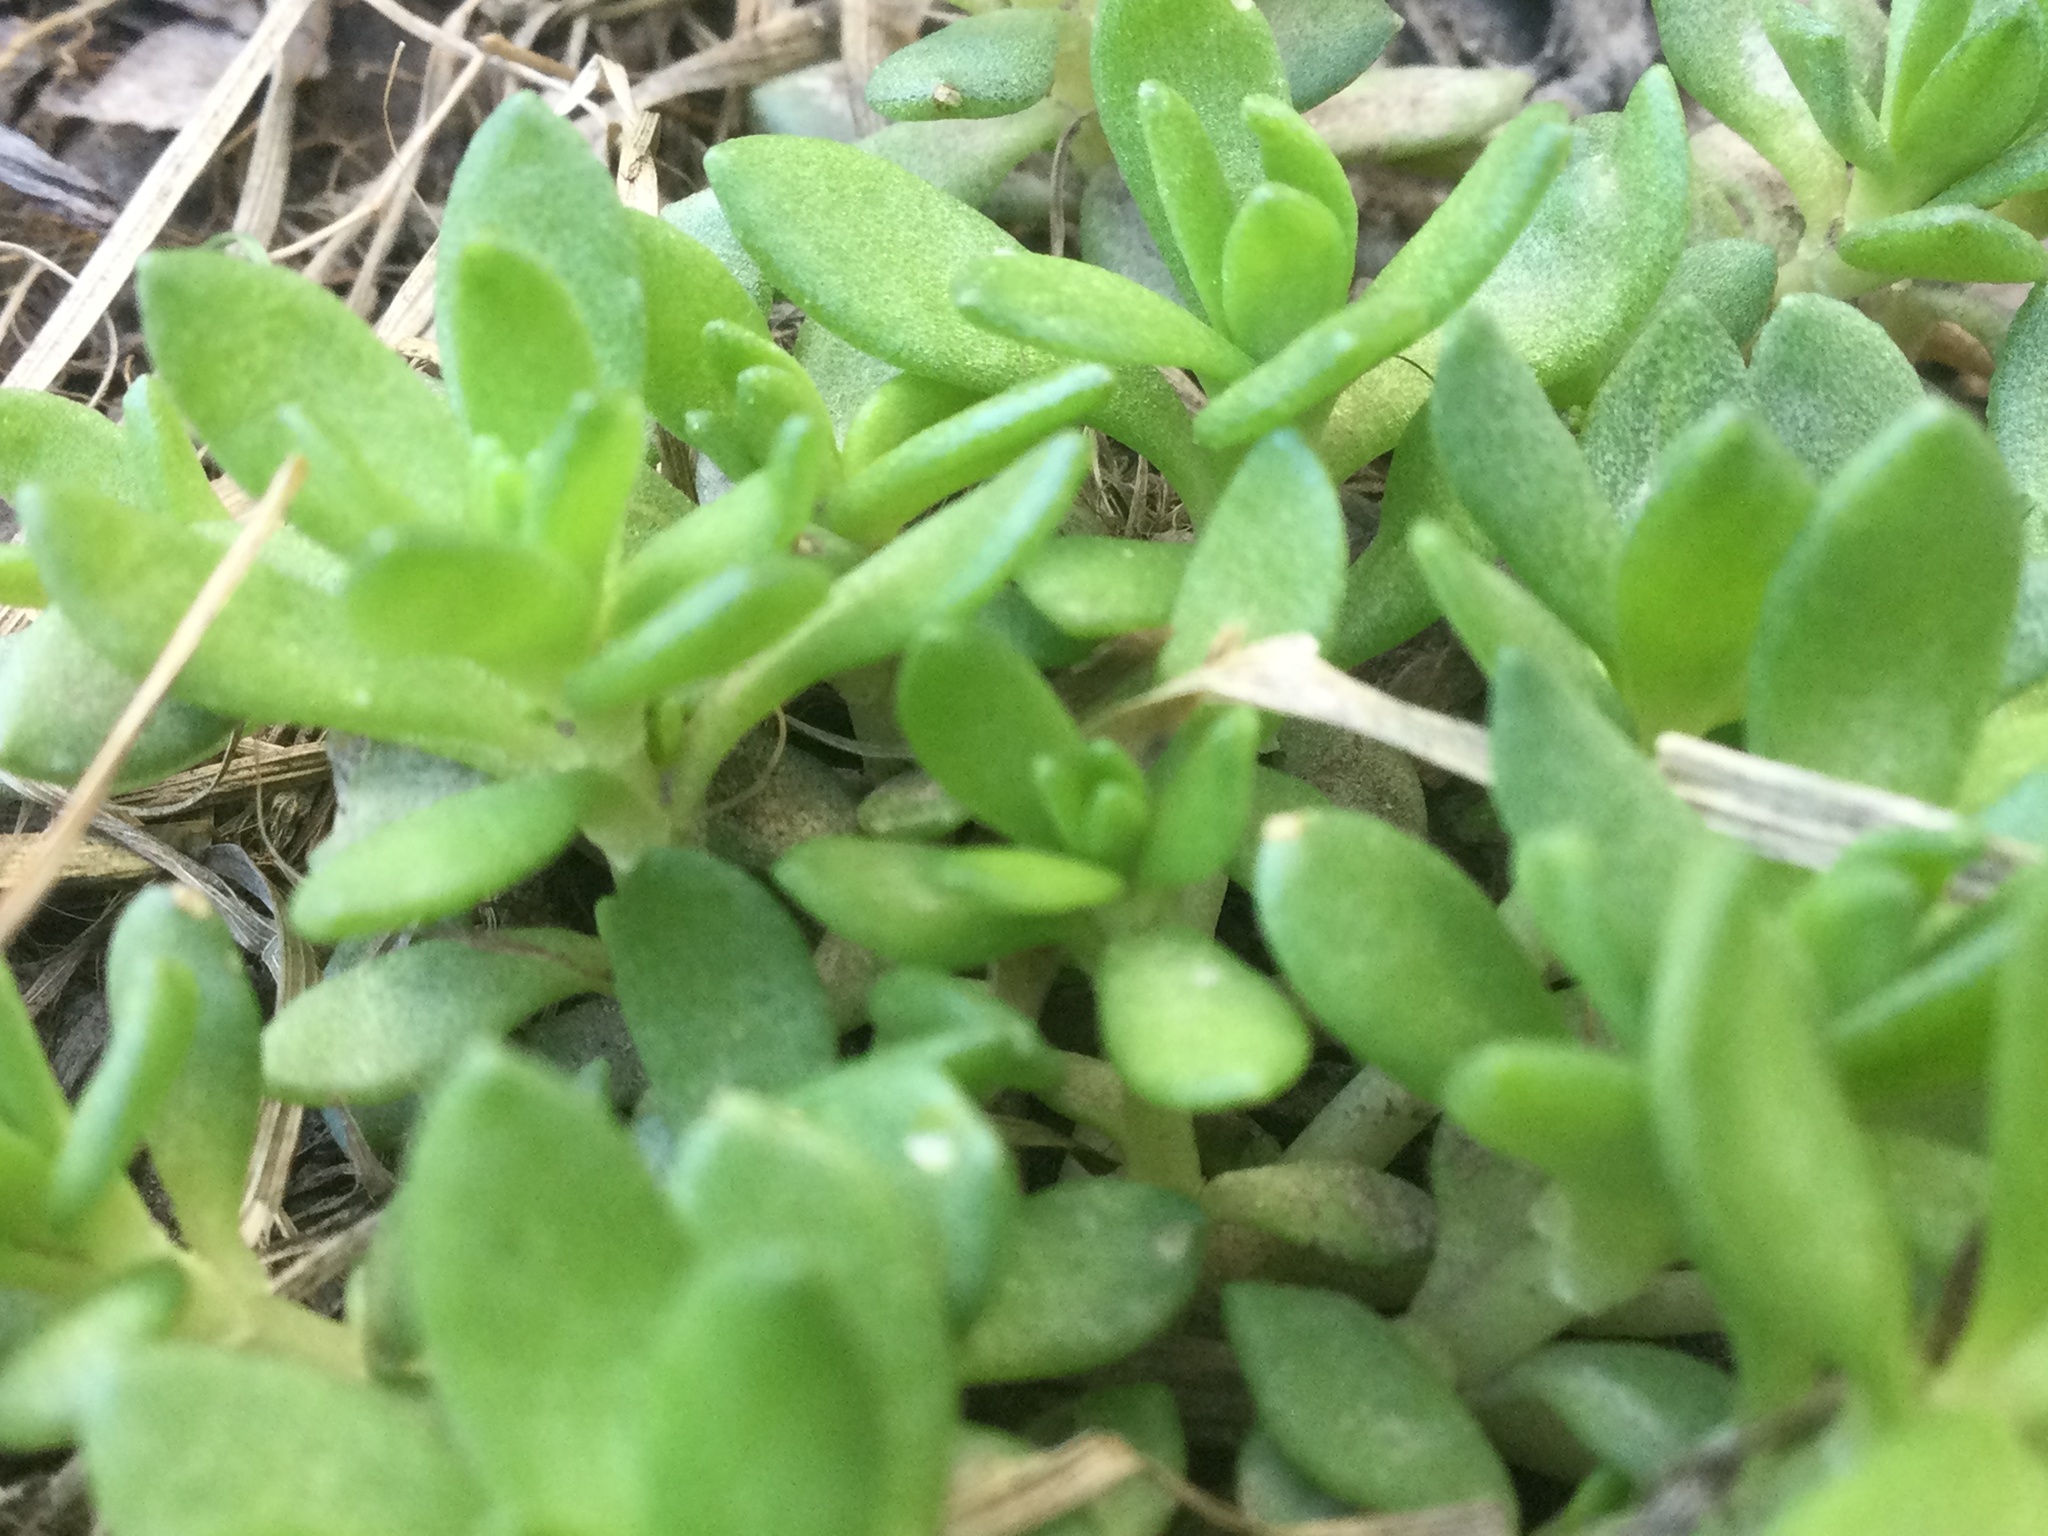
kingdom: Plantae
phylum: Tracheophyta
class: Magnoliopsida
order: Saxifragales
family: Crassulaceae
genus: Sedum
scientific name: Sedum sarmentosum
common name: Stringy stonecrop
